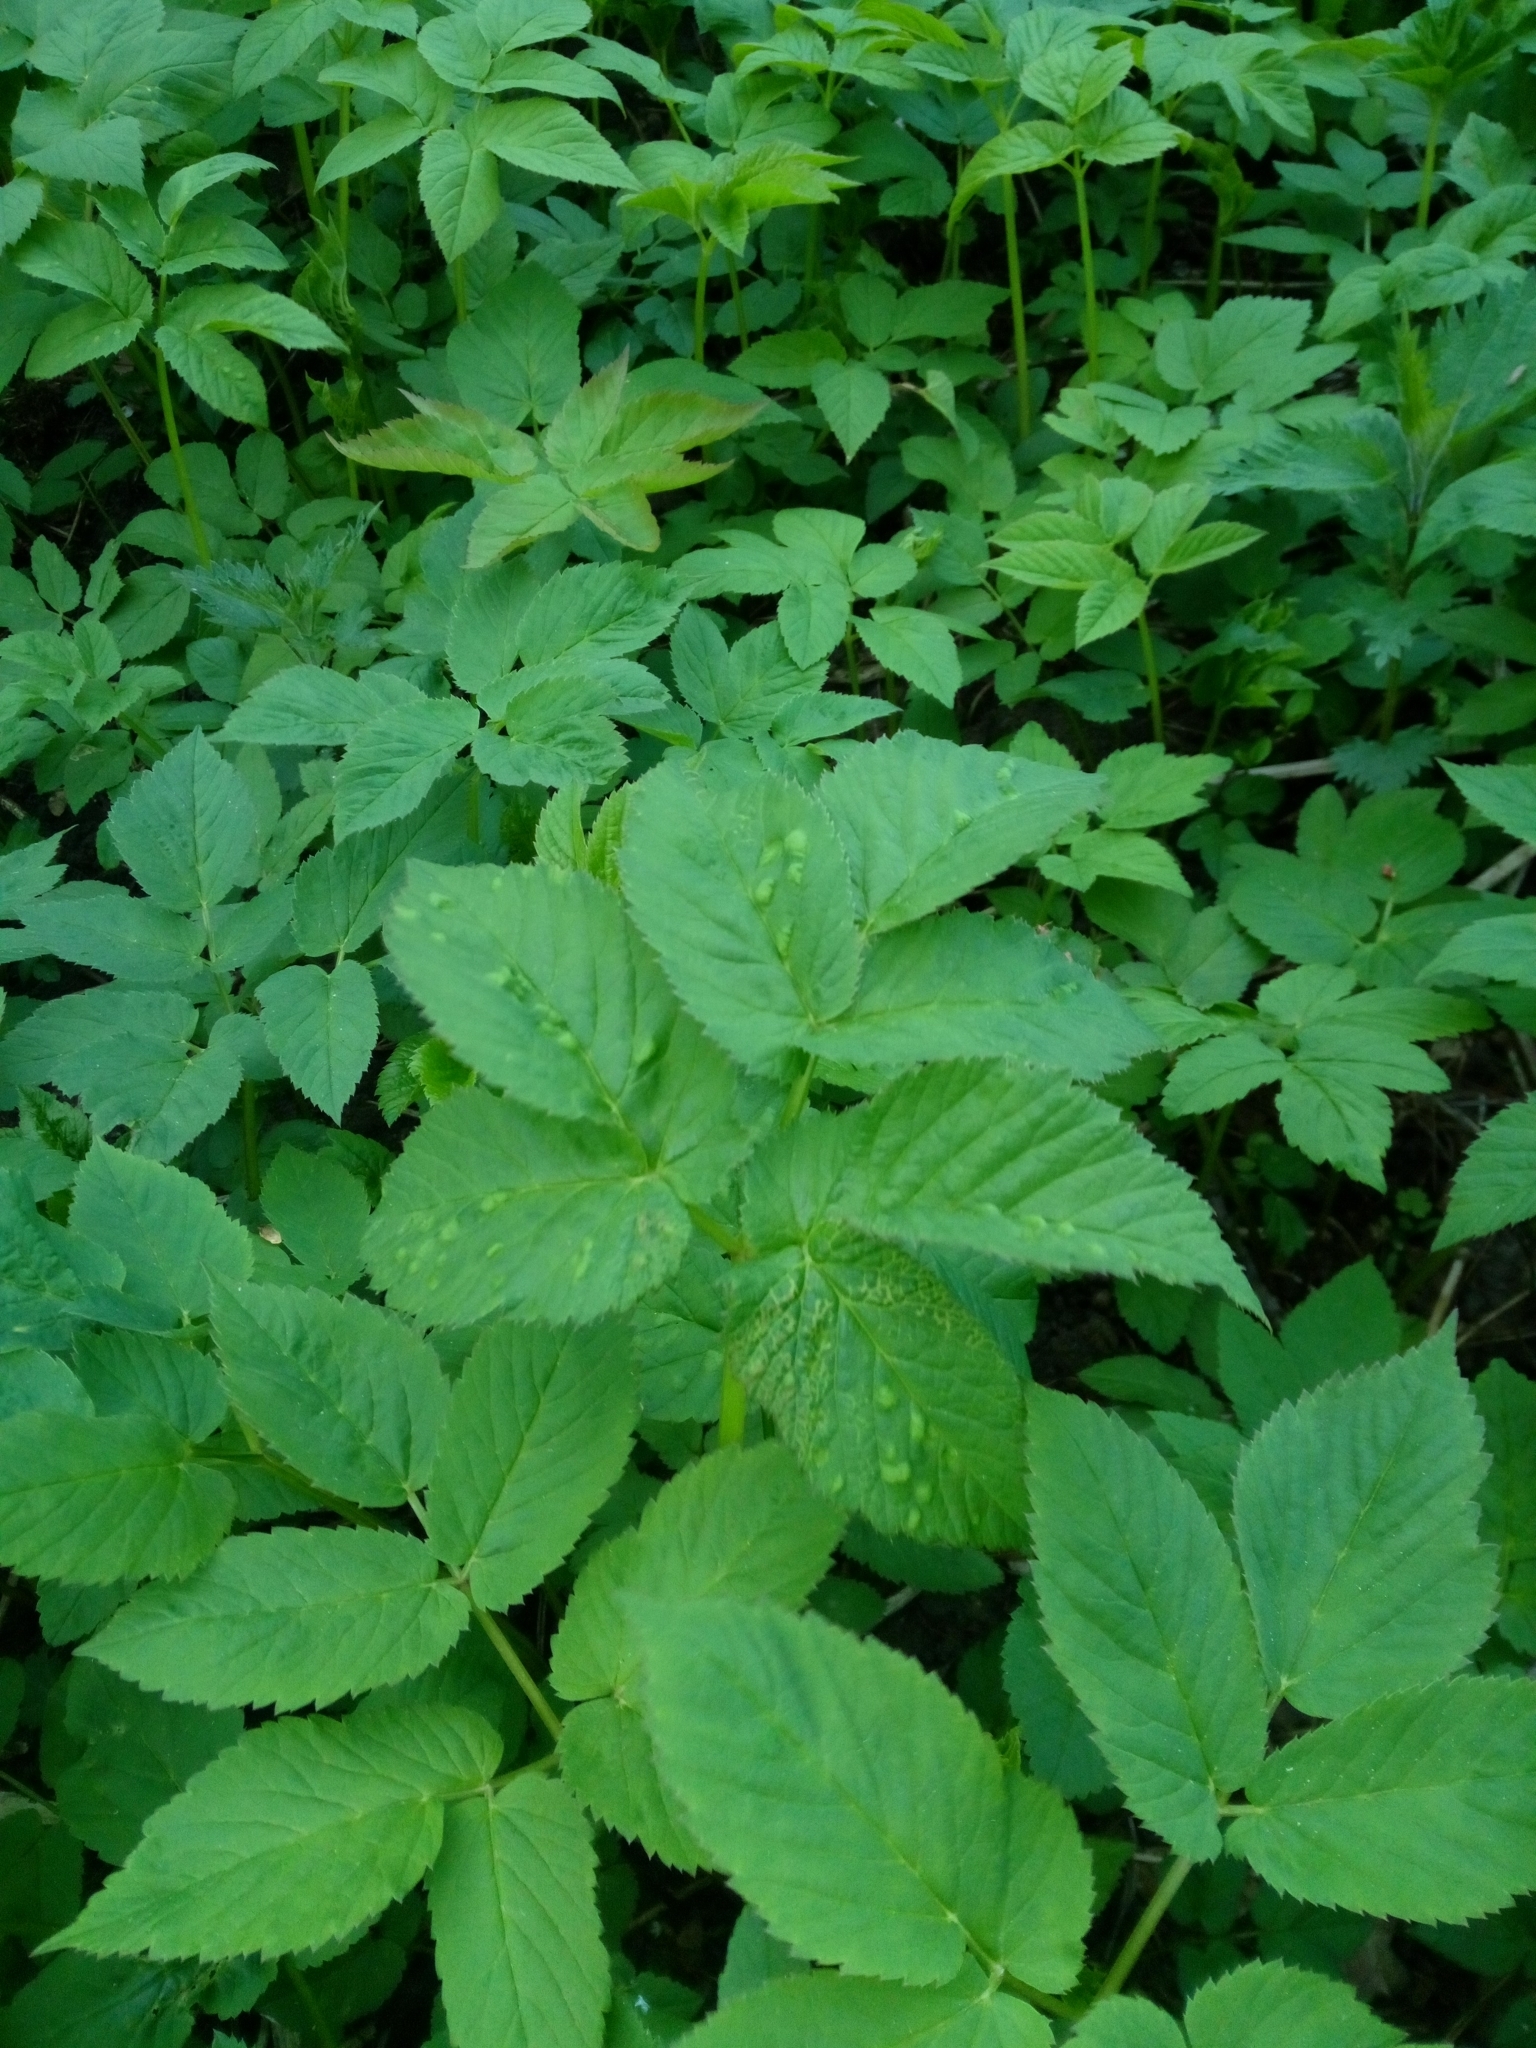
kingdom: Plantae
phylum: Tracheophyta
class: Magnoliopsida
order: Apiales
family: Apiaceae
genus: Aegopodium
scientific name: Aegopodium podagraria
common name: Ground-elder
